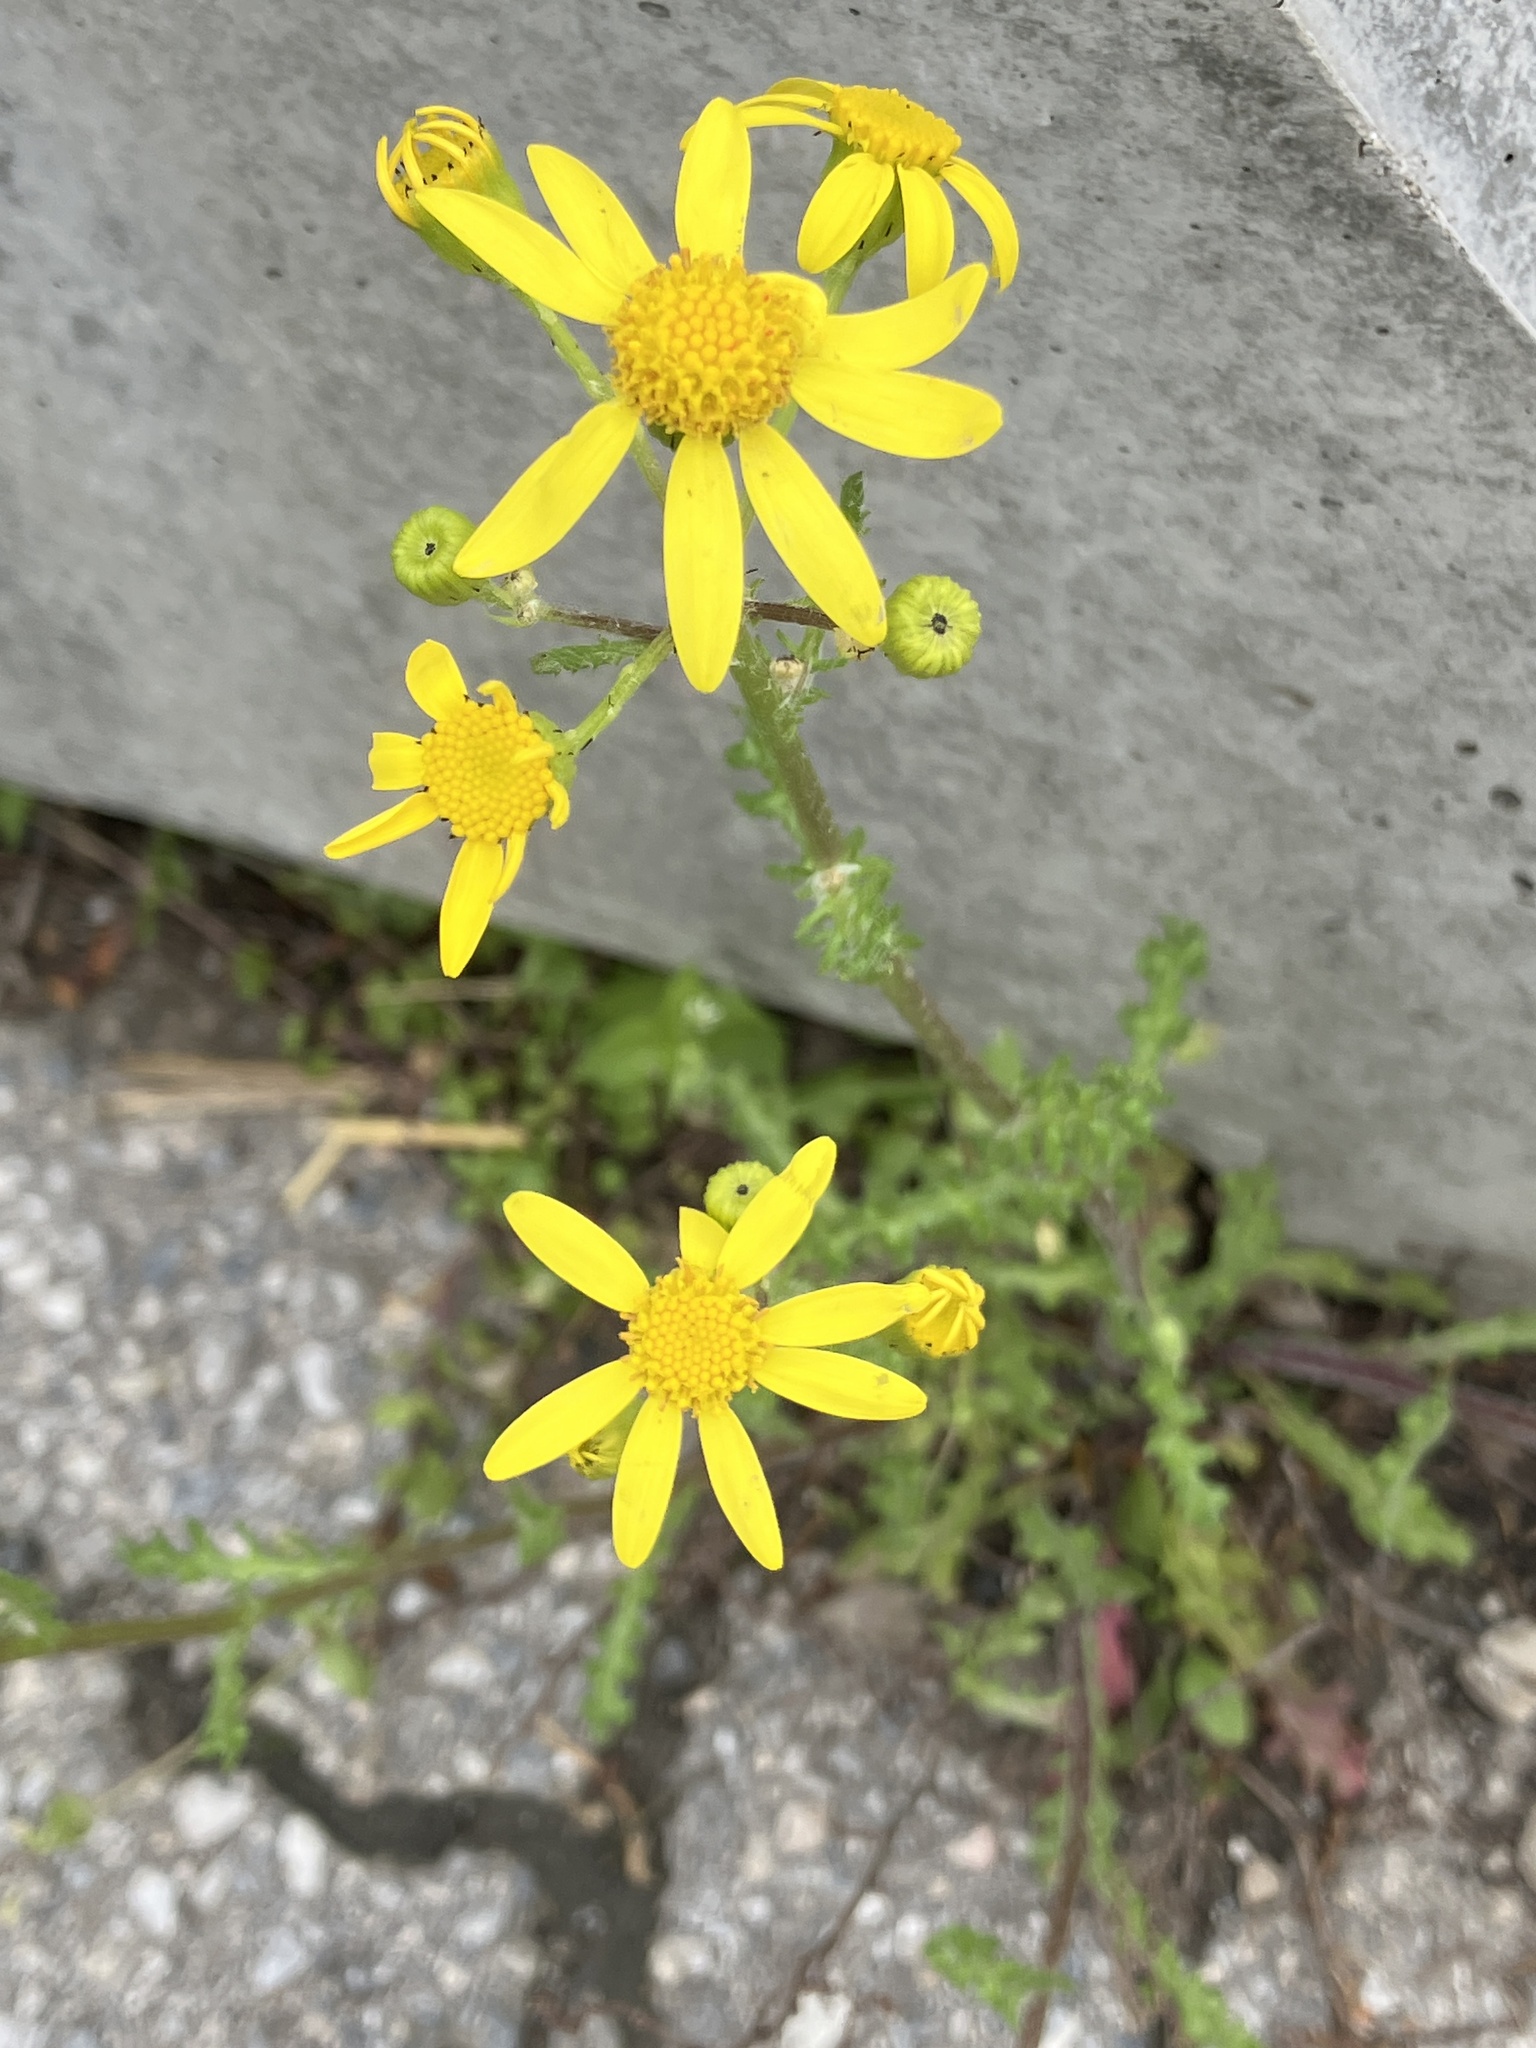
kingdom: Plantae
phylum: Tracheophyta
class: Magnoliopsida
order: Asterales
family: Asteraceae
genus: Senecio
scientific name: Senecio vernalis
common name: Eastern groundsel
